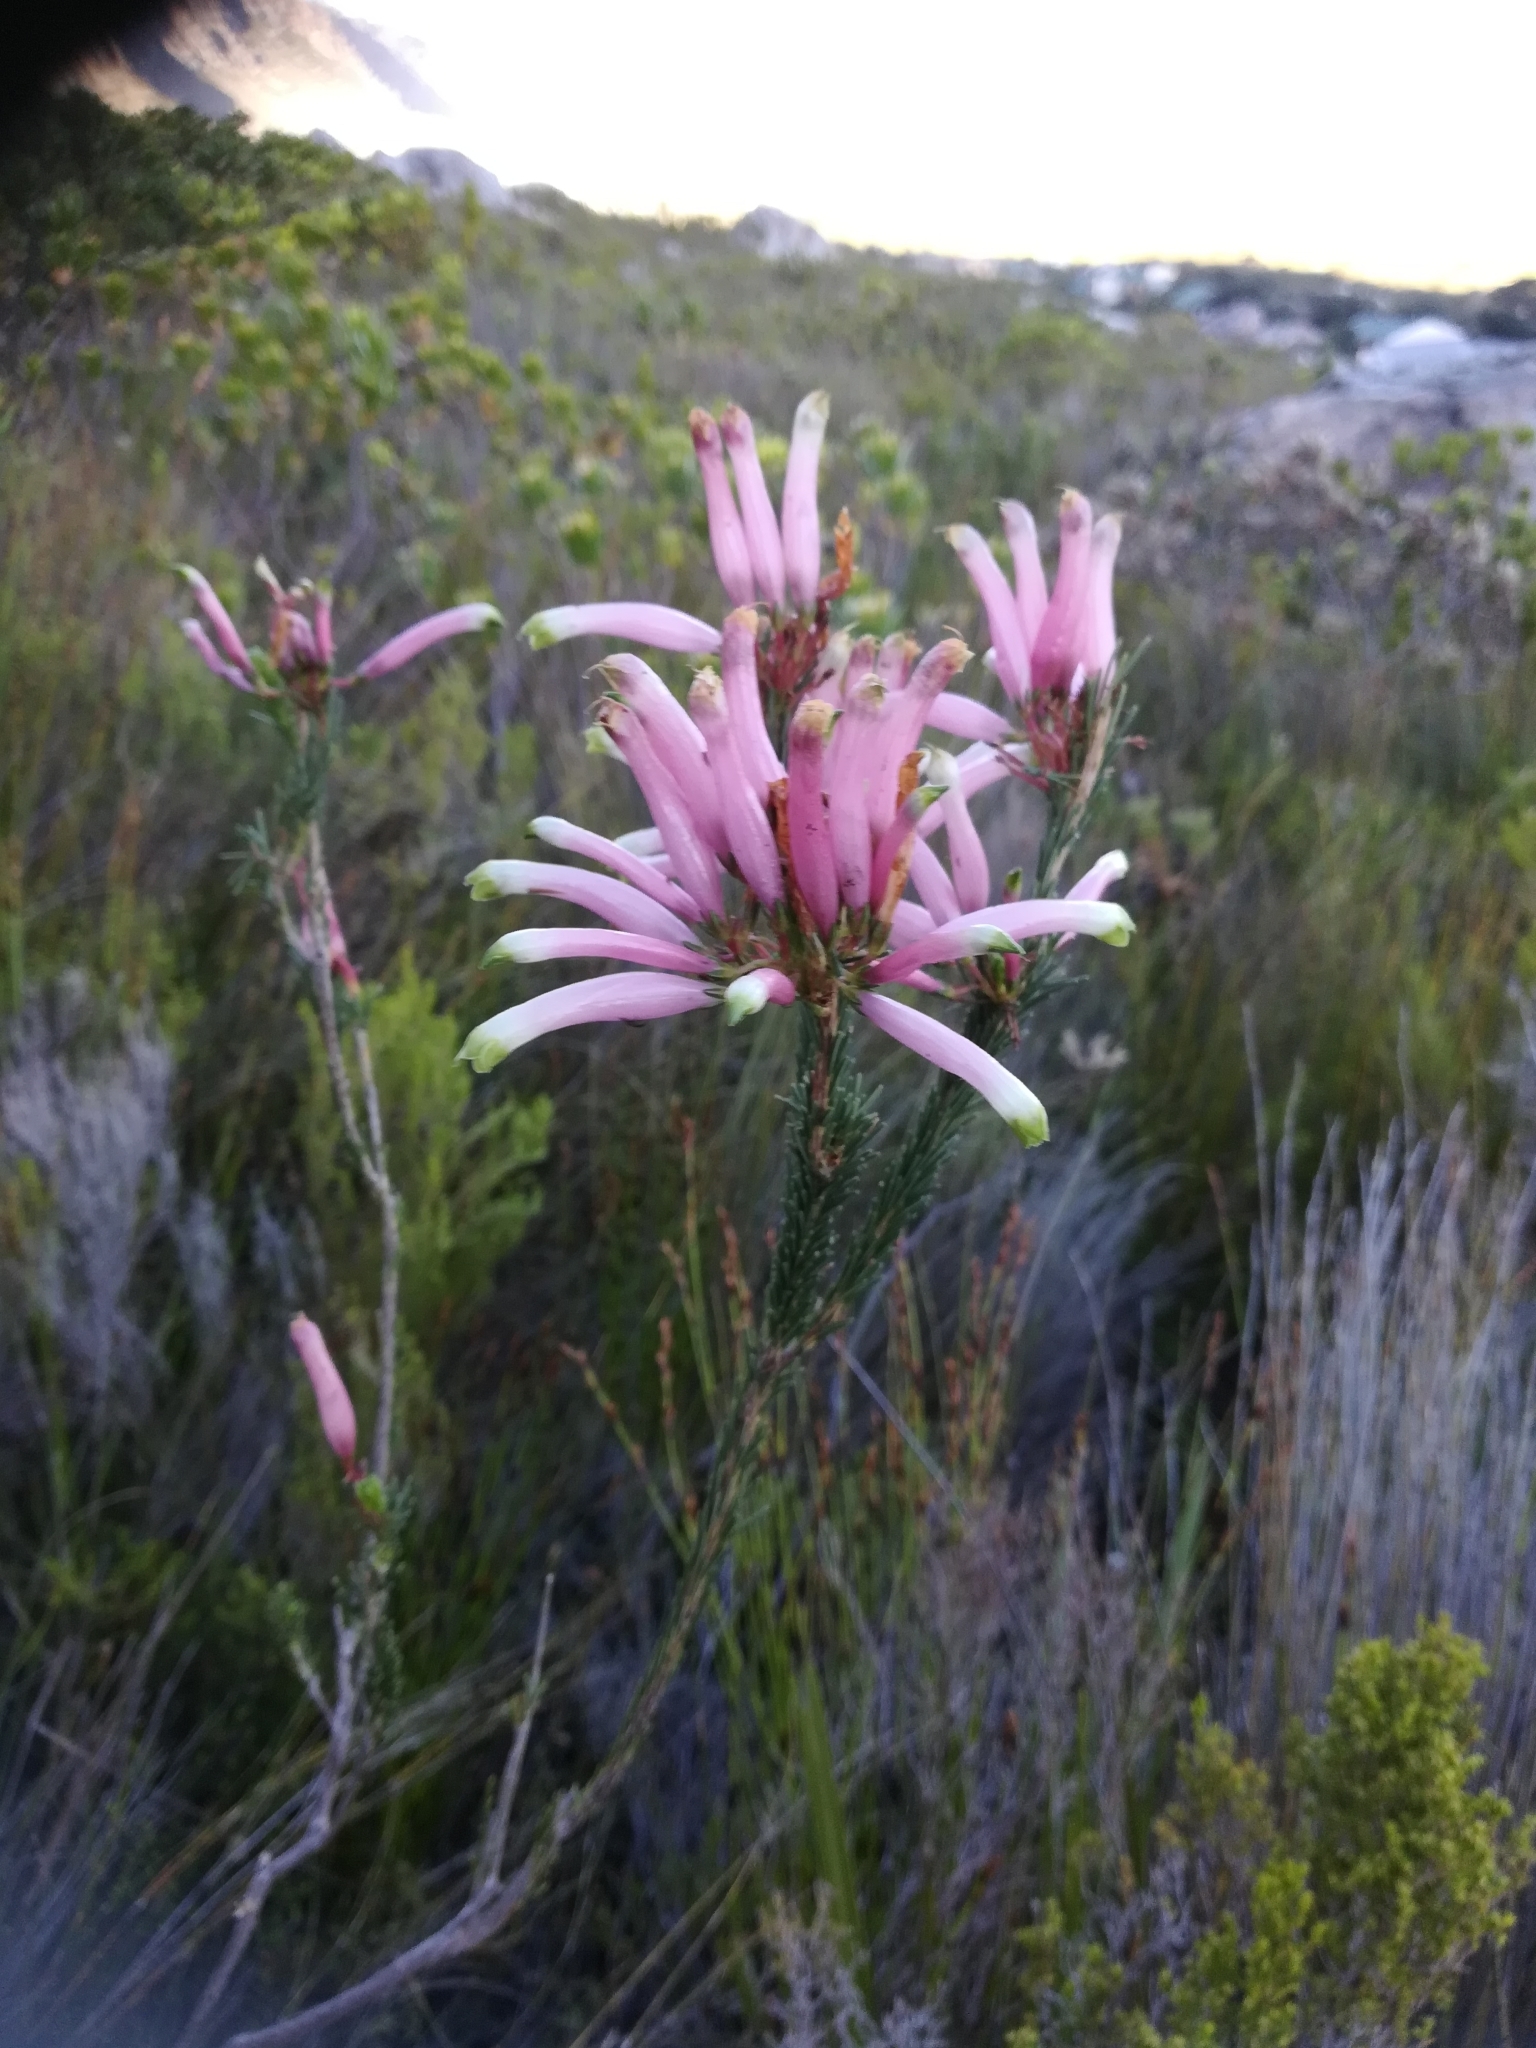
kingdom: Plantae
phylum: Tracheophyta
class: Magnoliopsida
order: Ericales
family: Ericaceae
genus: Erica
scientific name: Erica fascicularis
